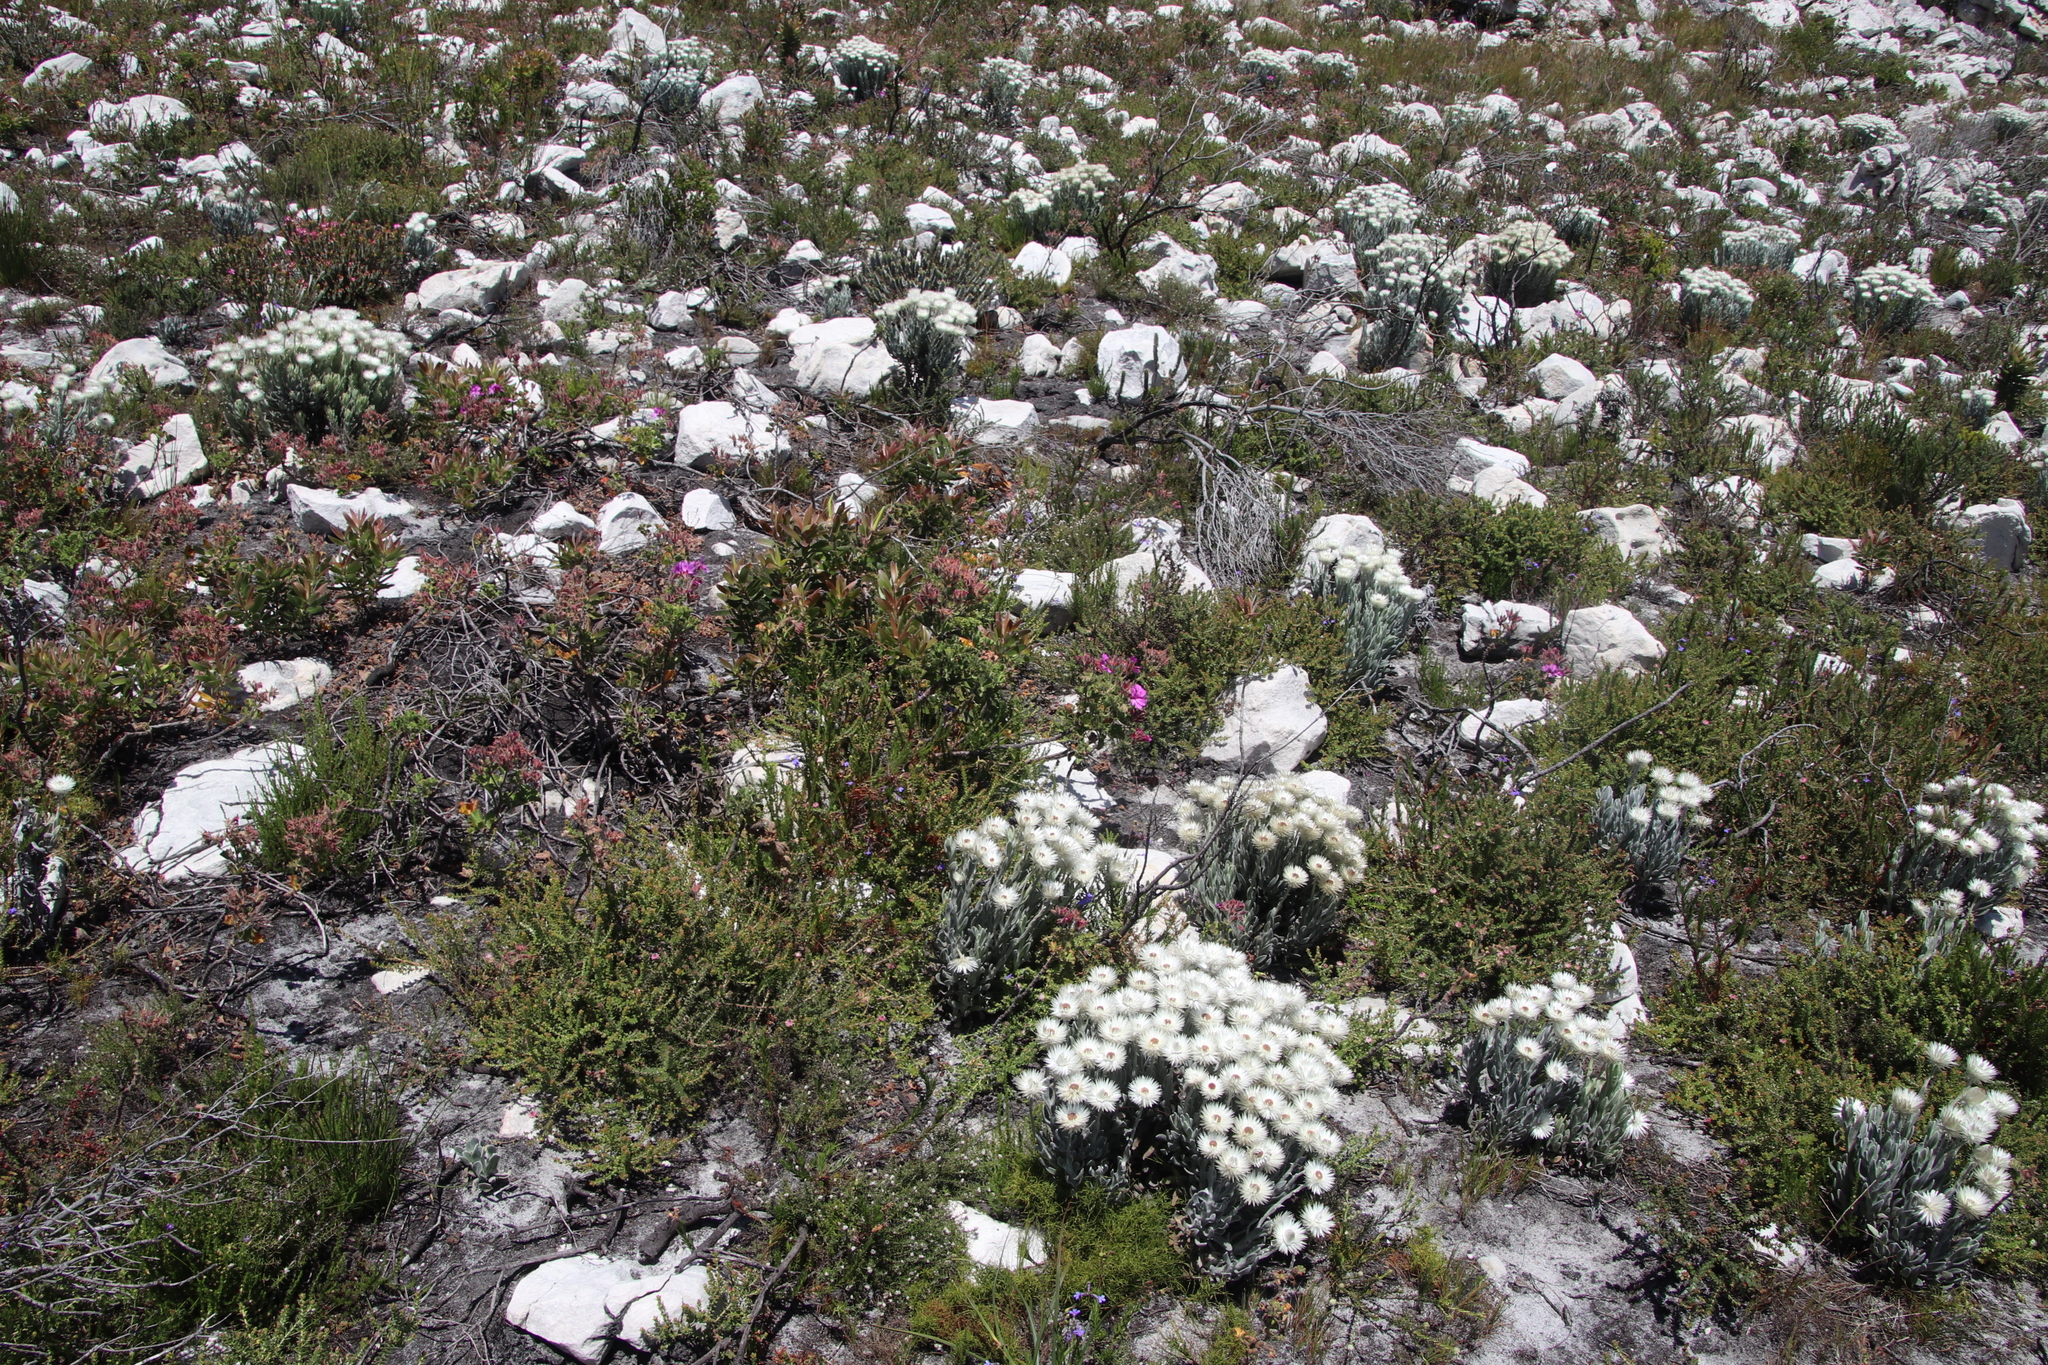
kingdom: Plantae
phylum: Tracheophyta
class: Magnoliopsida
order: Asterales
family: Asteraceae
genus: Syncarpha
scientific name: Syncarpha vestita
